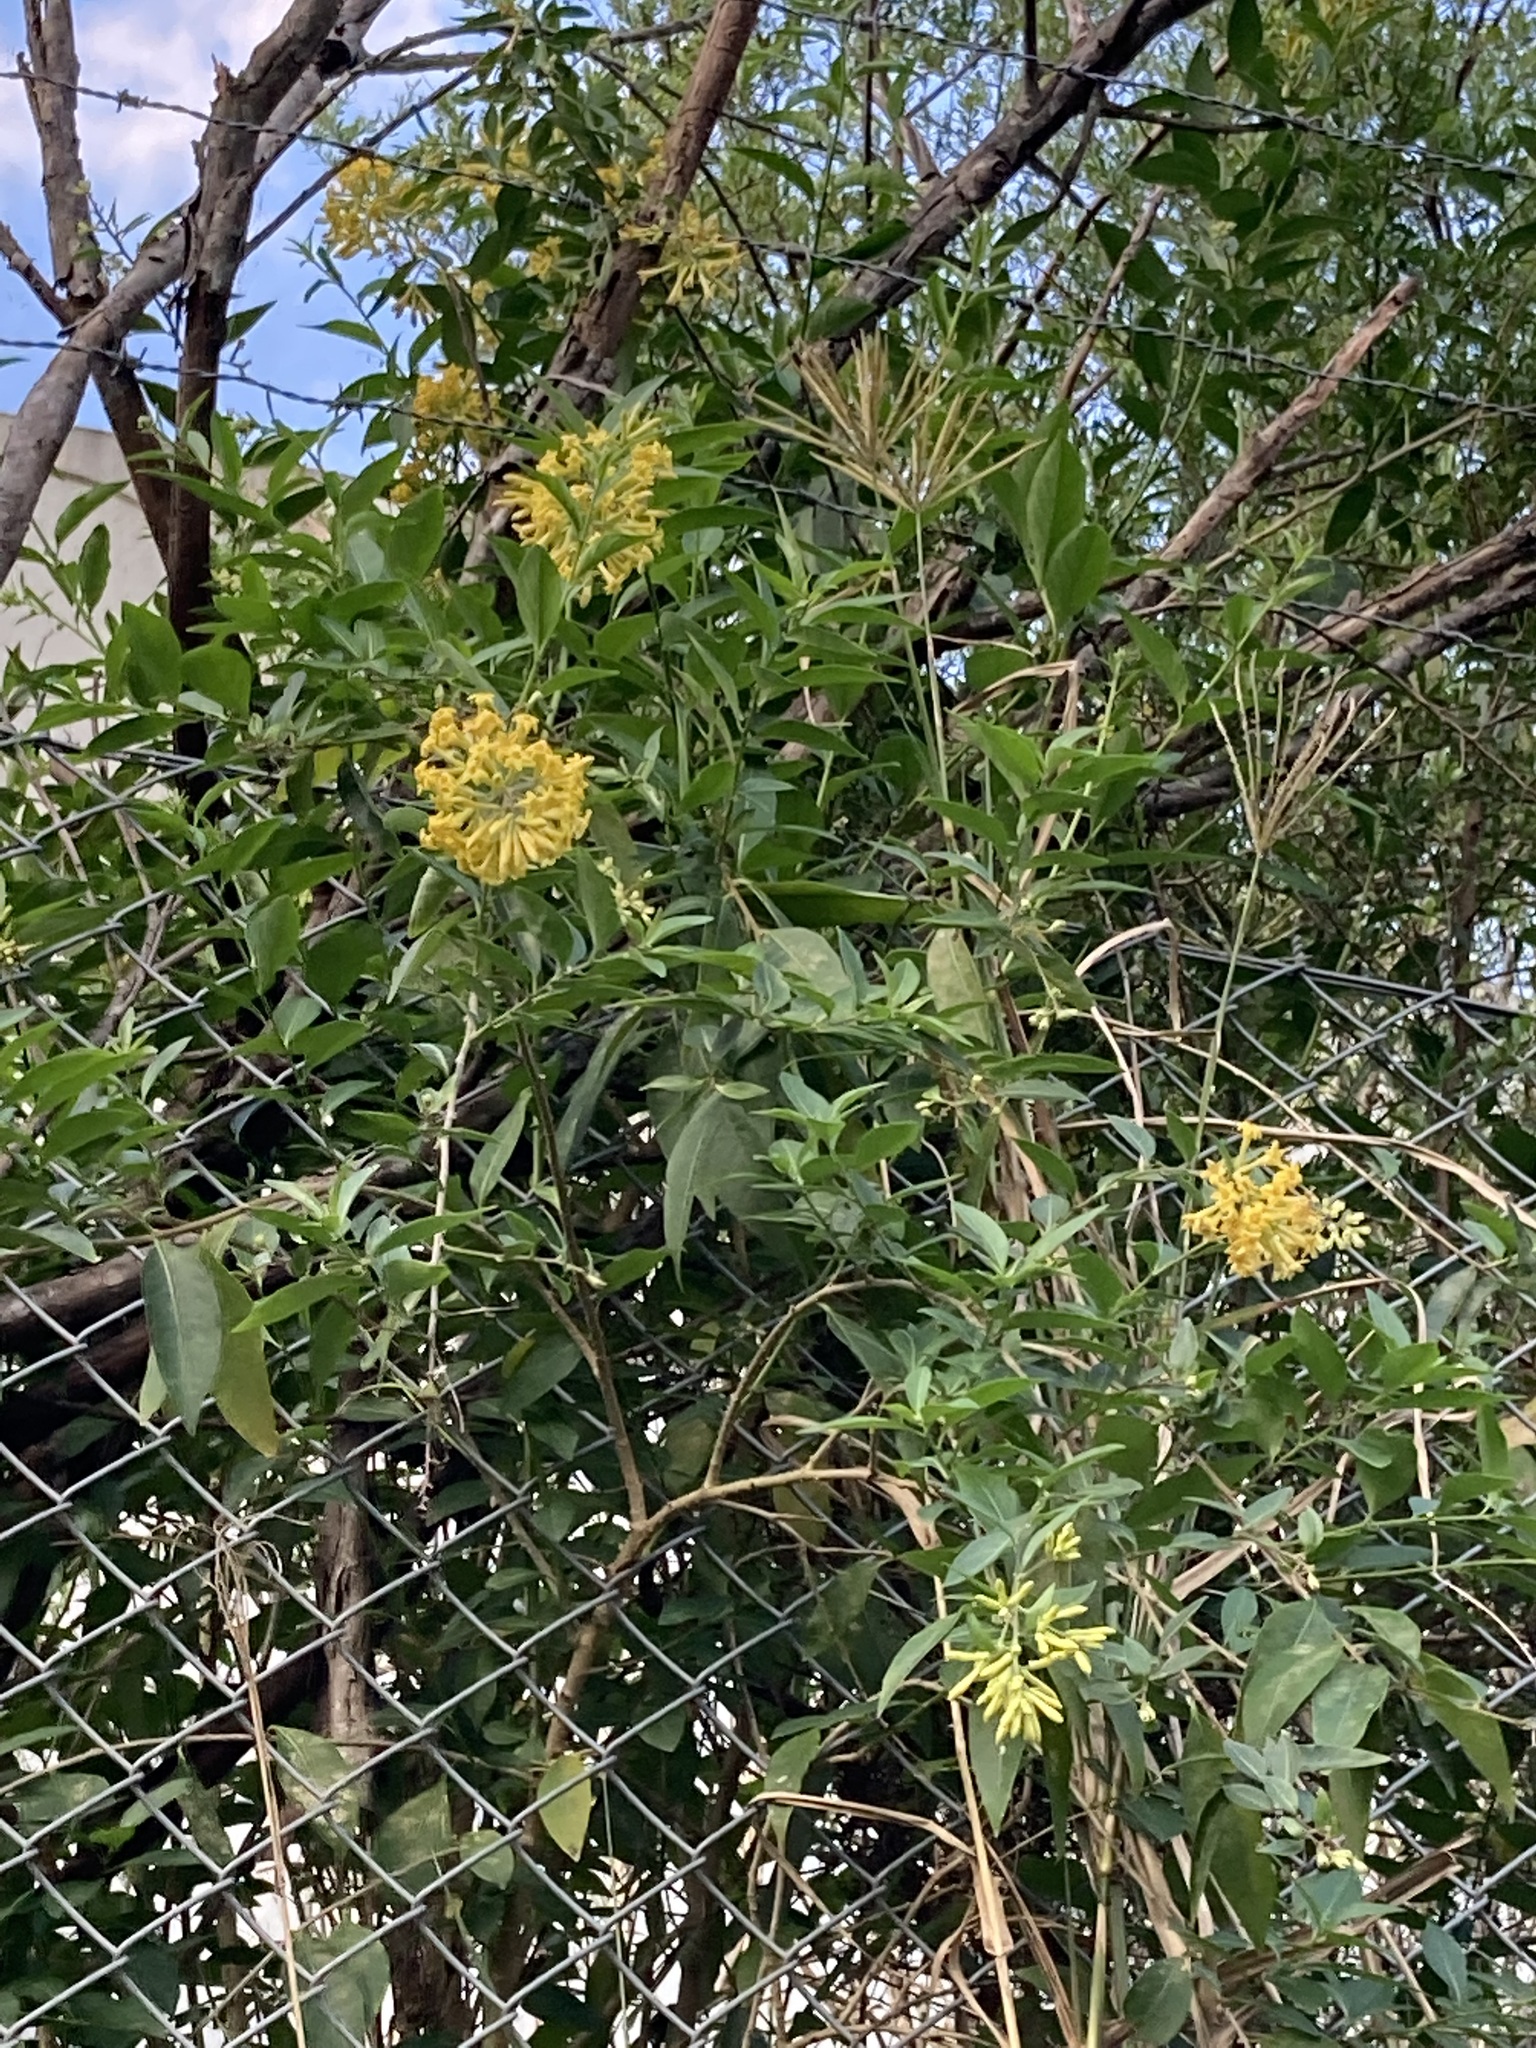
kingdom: Plantae
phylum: Tracheophyta
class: Magnoliopsida
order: Solanales
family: Solanaceae
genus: Cestrum
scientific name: Cestrum parqui
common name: Chilean cestrum
